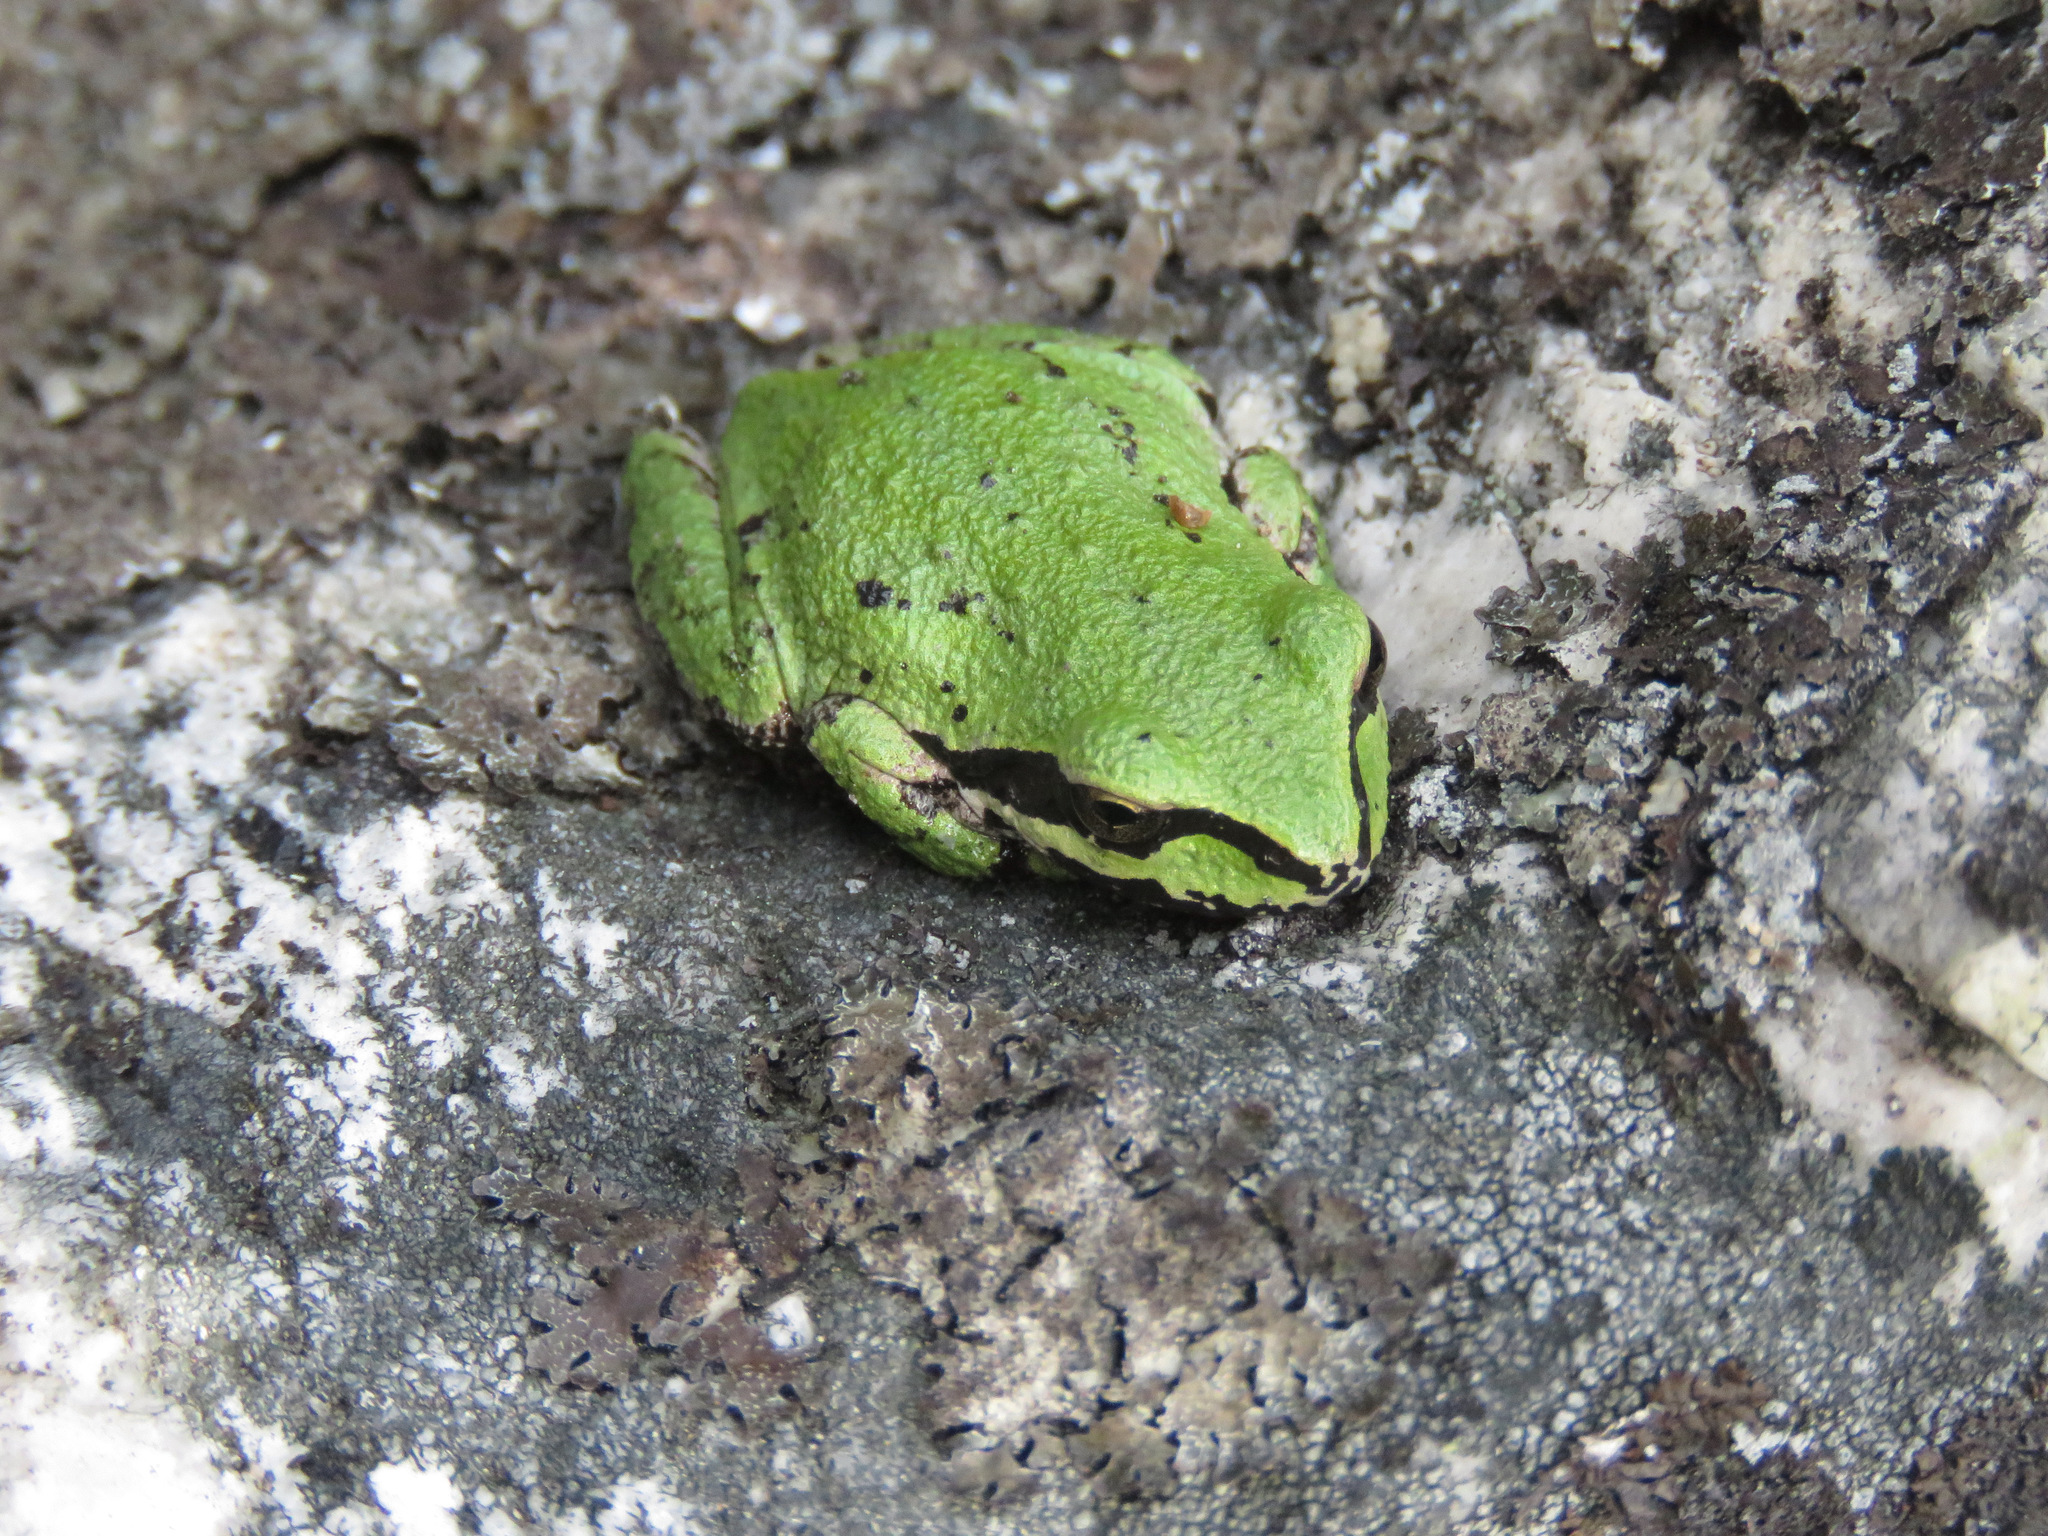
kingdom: Animalia
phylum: Chordata
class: Amphibia
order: Anura
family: Hylidae
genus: Pseudacris
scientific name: Pseudacris regilla
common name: Pacific chorus frog
